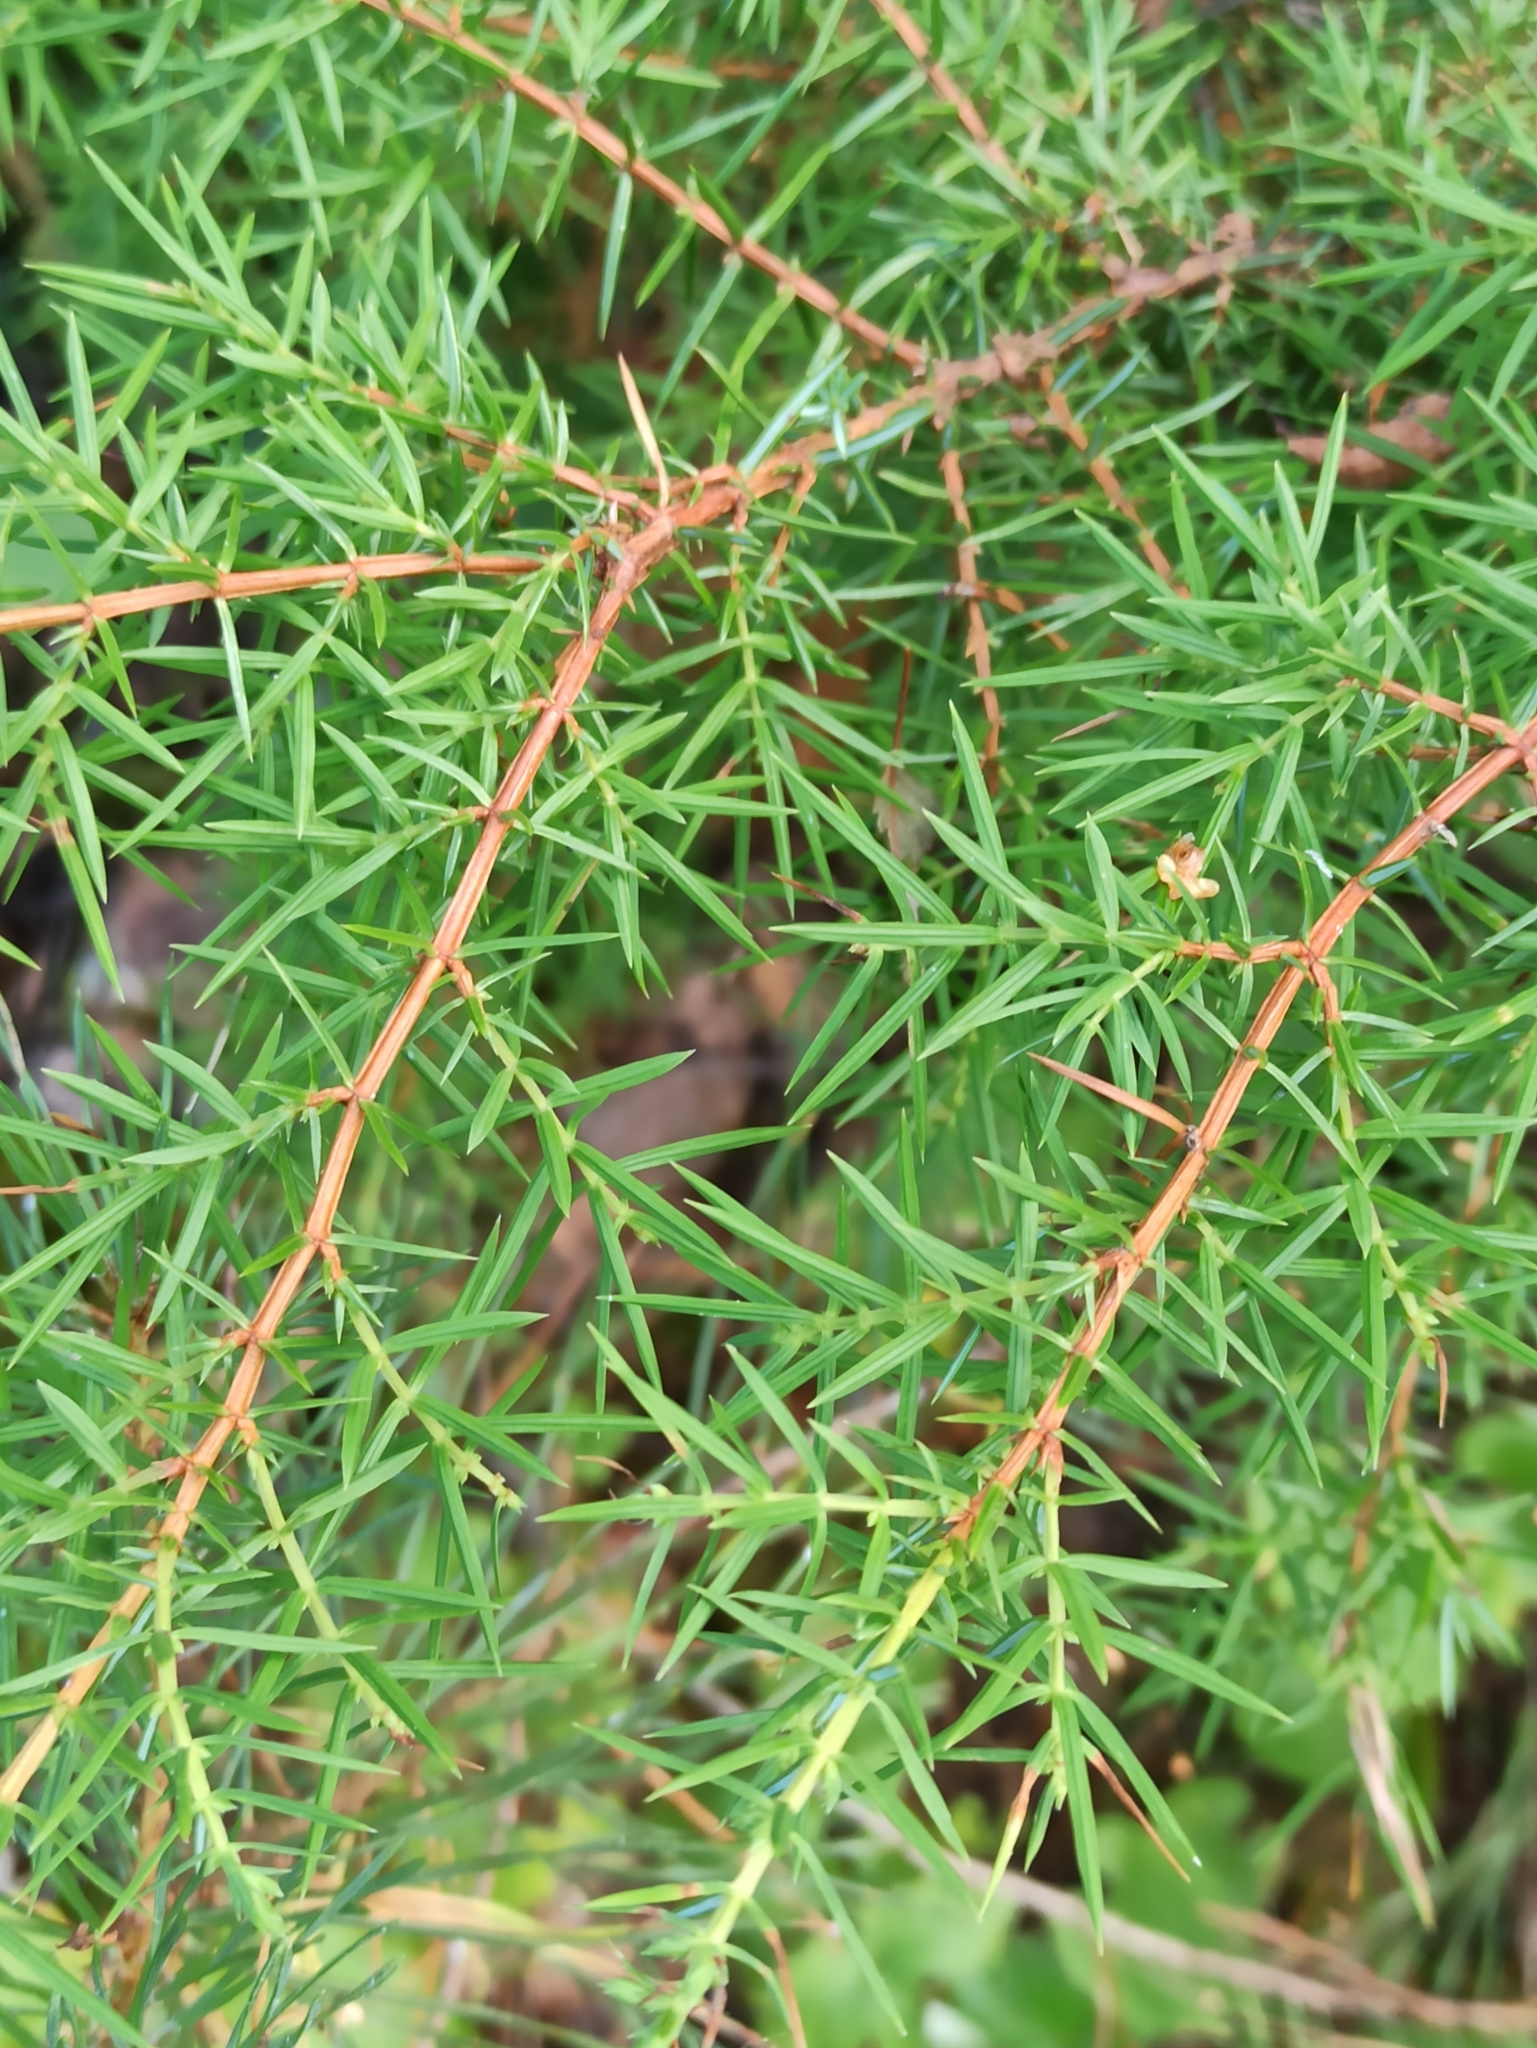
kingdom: Plantae
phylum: Tracheophyta
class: Pinopsida
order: Pinales
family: Cupressaceae
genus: Juniperus
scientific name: Juniperus communis
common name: Common juniper
